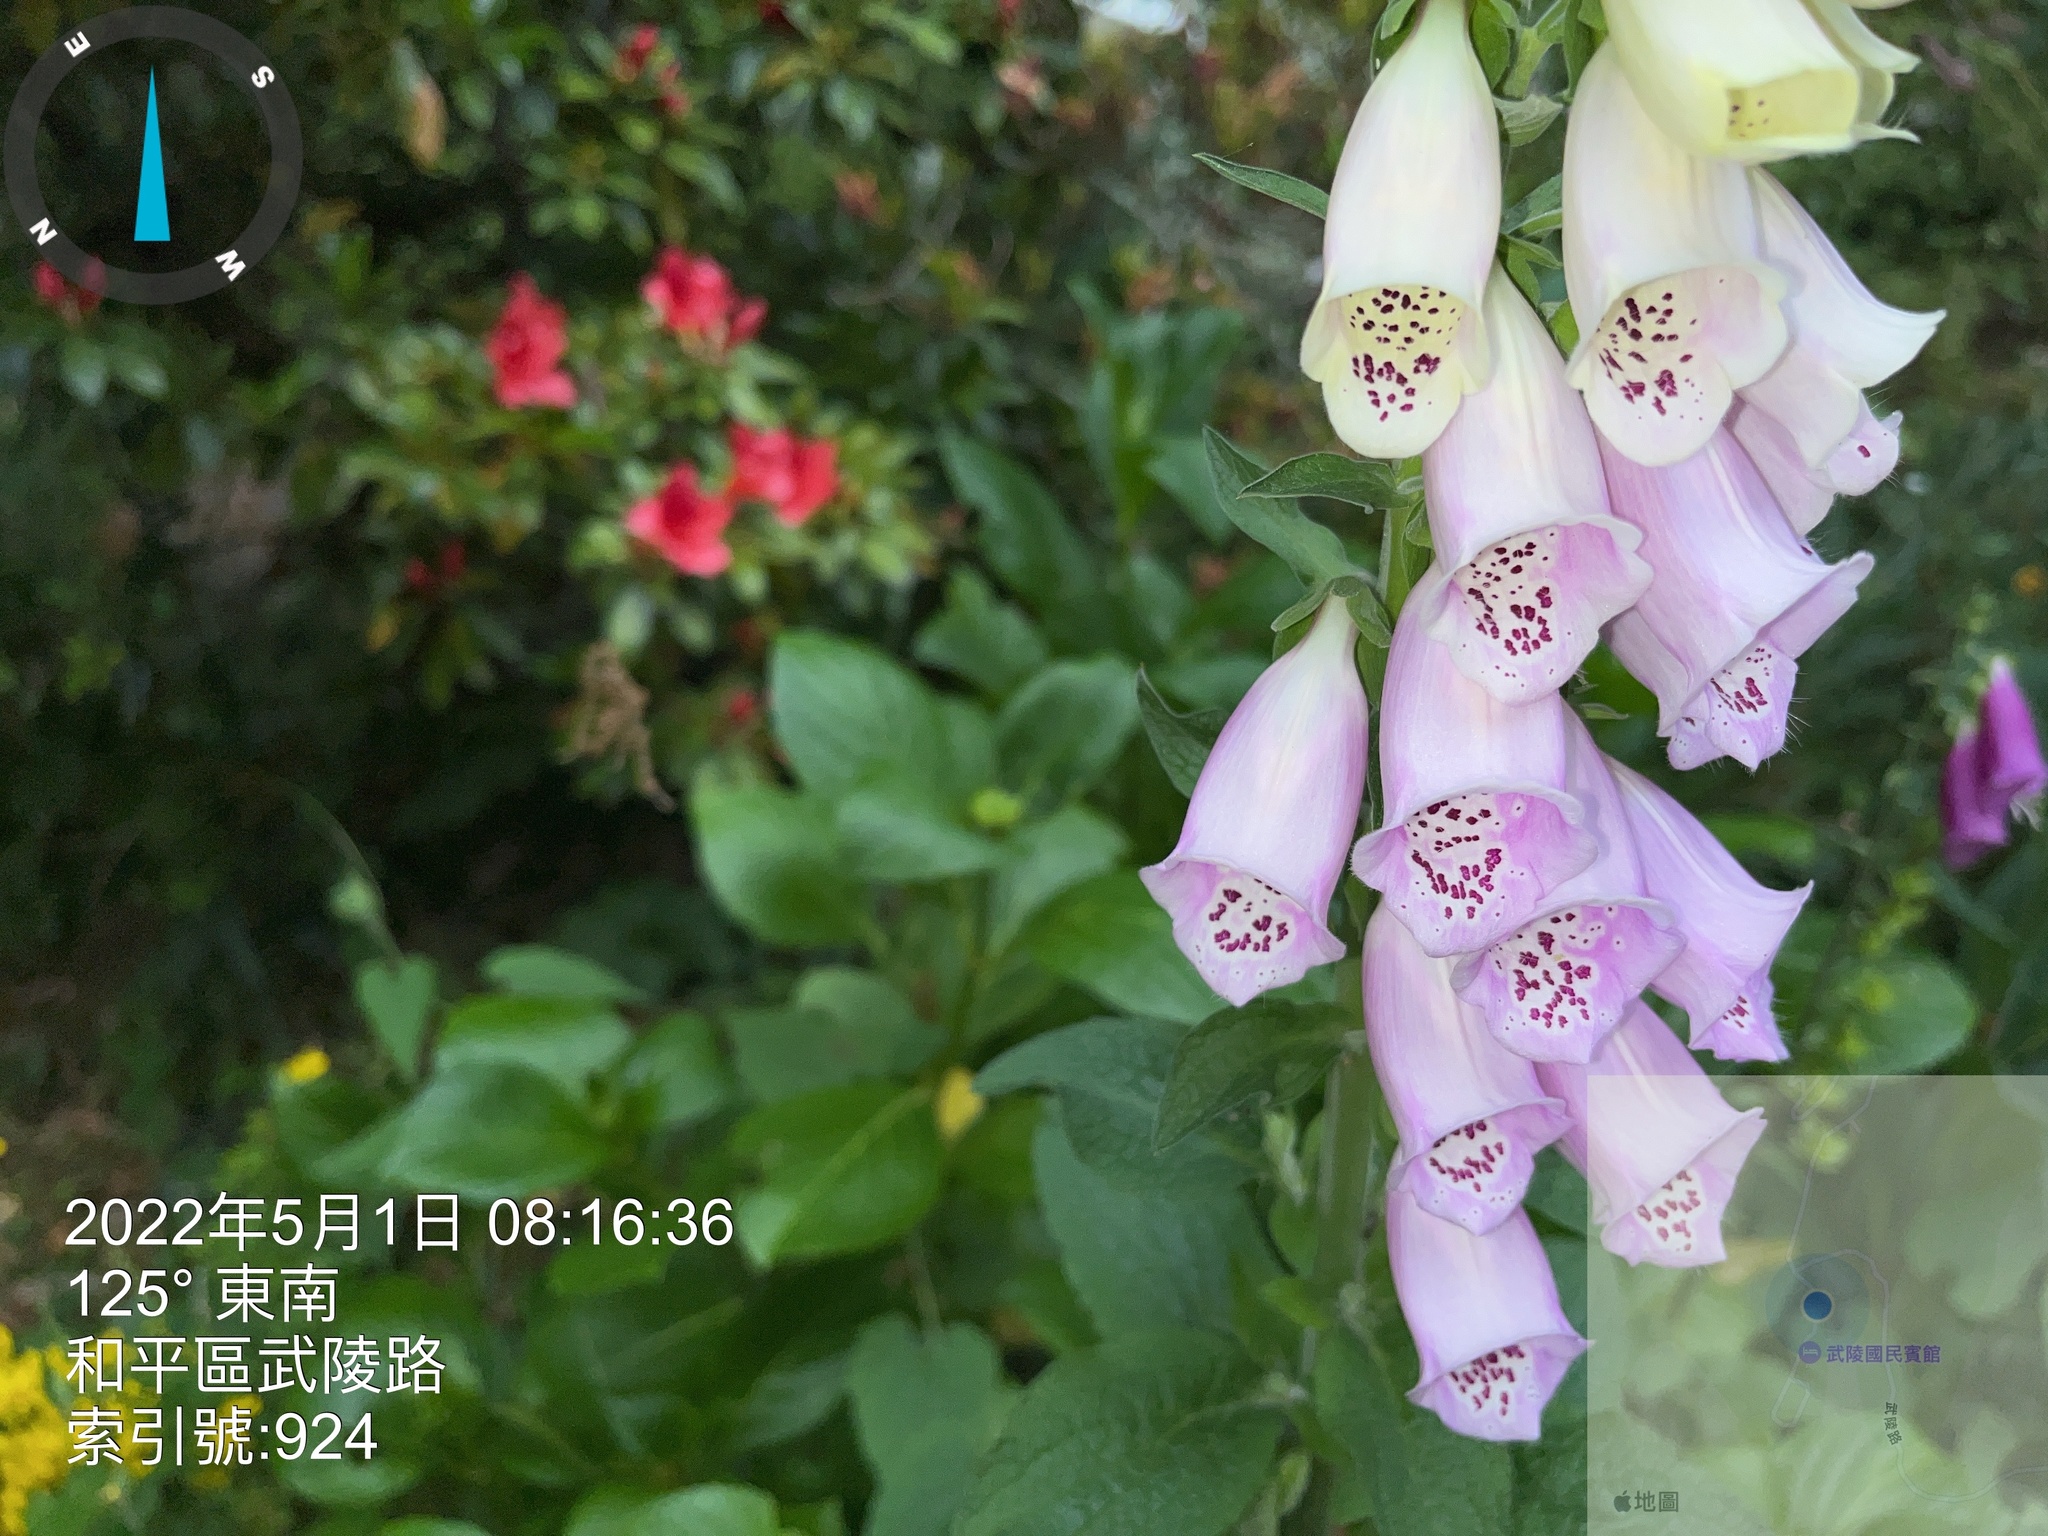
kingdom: Plantae
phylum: Tracheophyta
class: Magnoliopsida
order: Lamiales
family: Plantaginaceae
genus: Digitalis
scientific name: Digitalis purpurea
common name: Foxglove
